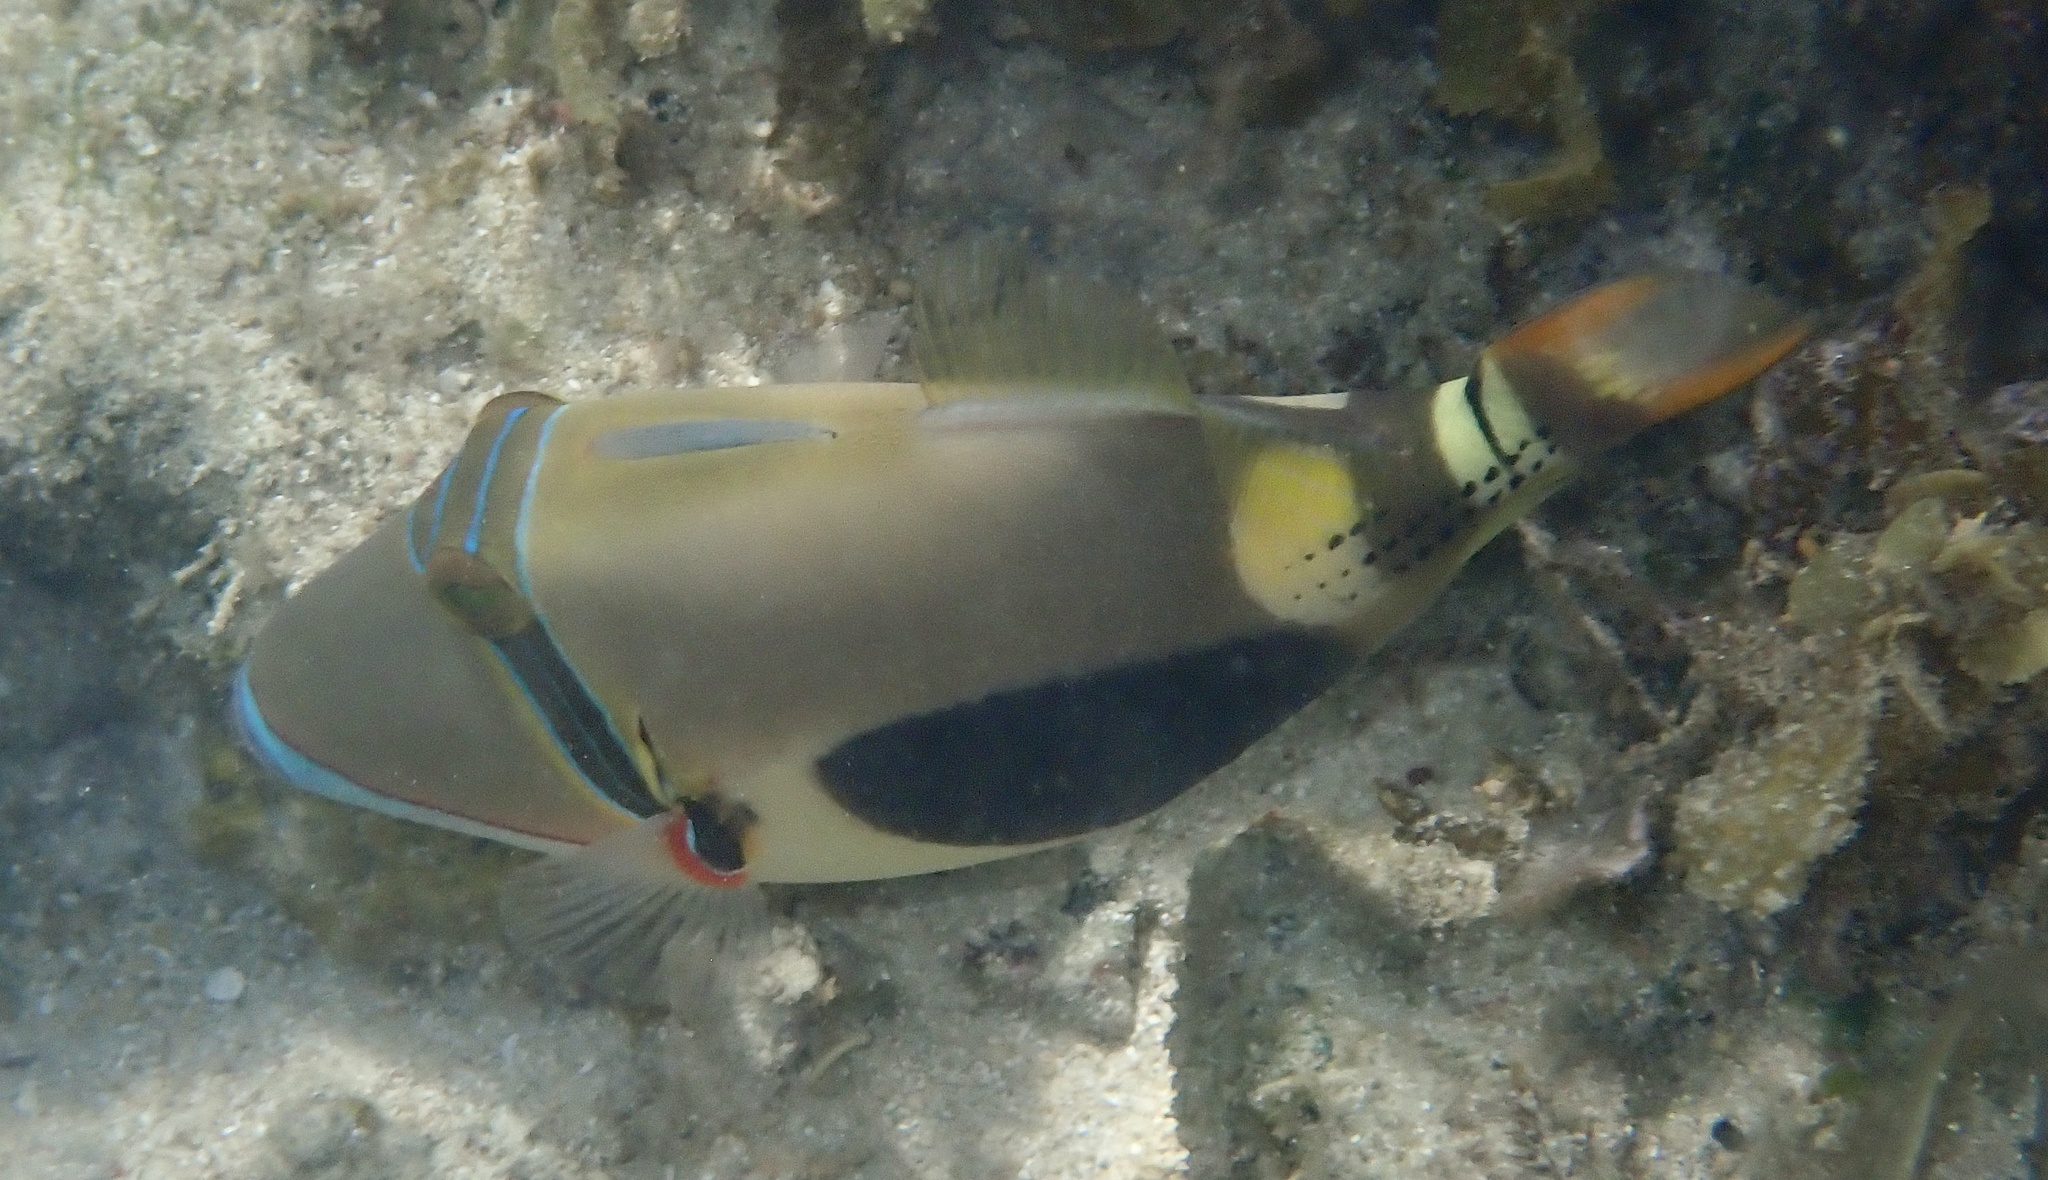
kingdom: Animalia
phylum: Chordata
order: Tetraodontiformes
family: Balistidae
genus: Rhinecanthus
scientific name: Rhinecanthus verrucosus
